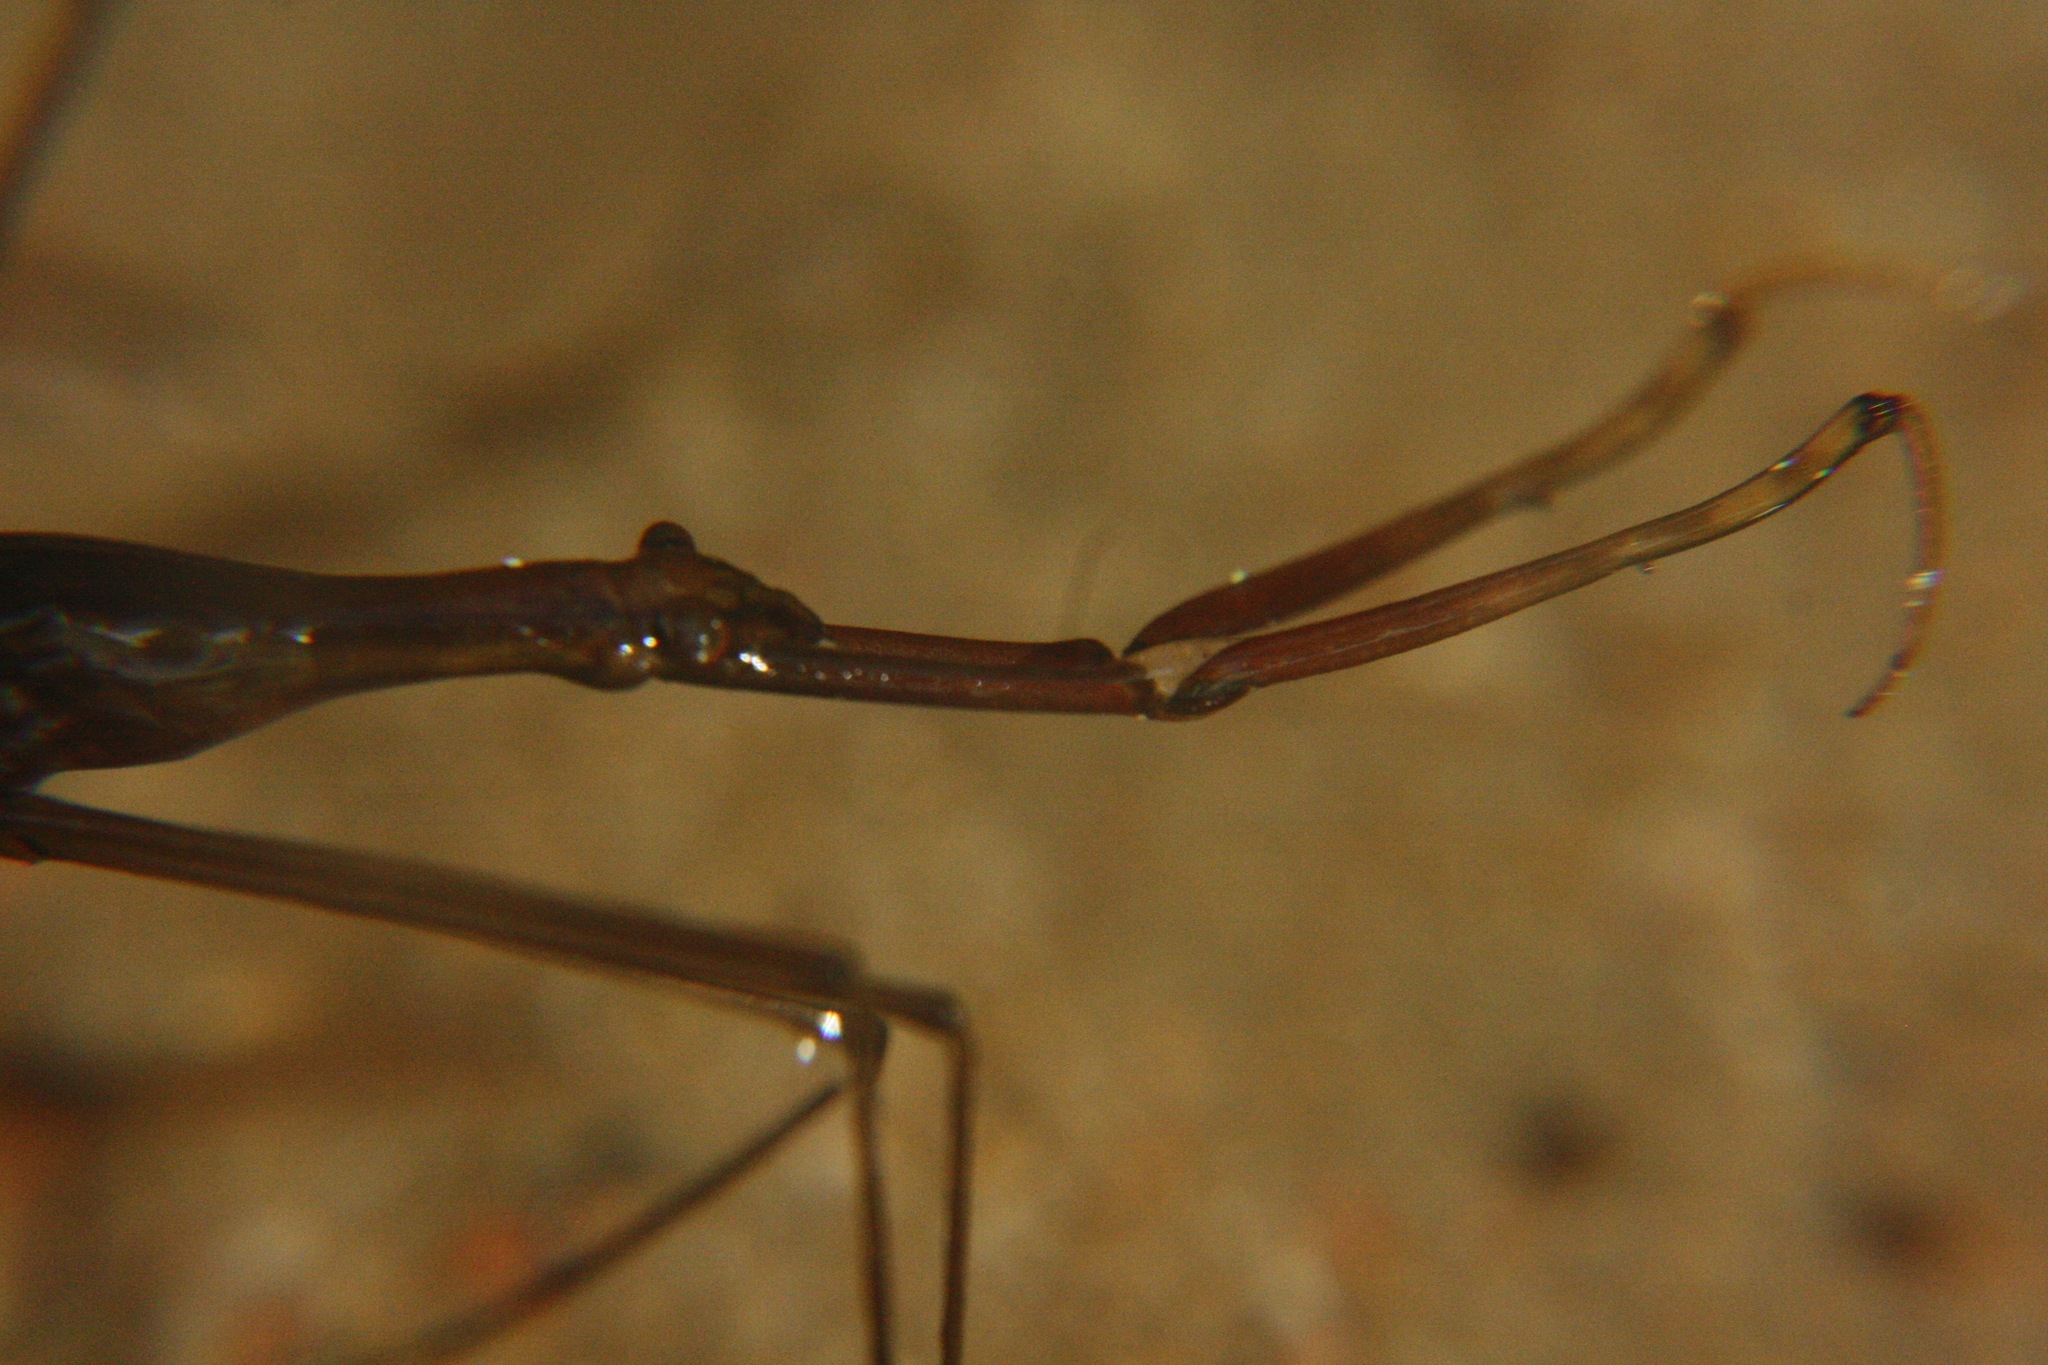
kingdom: Animalia
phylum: Arthropoda
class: Insecta
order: Hemiptera
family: Nepidae
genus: Ranatra
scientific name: Ranatra linearis
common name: Water stick insect
